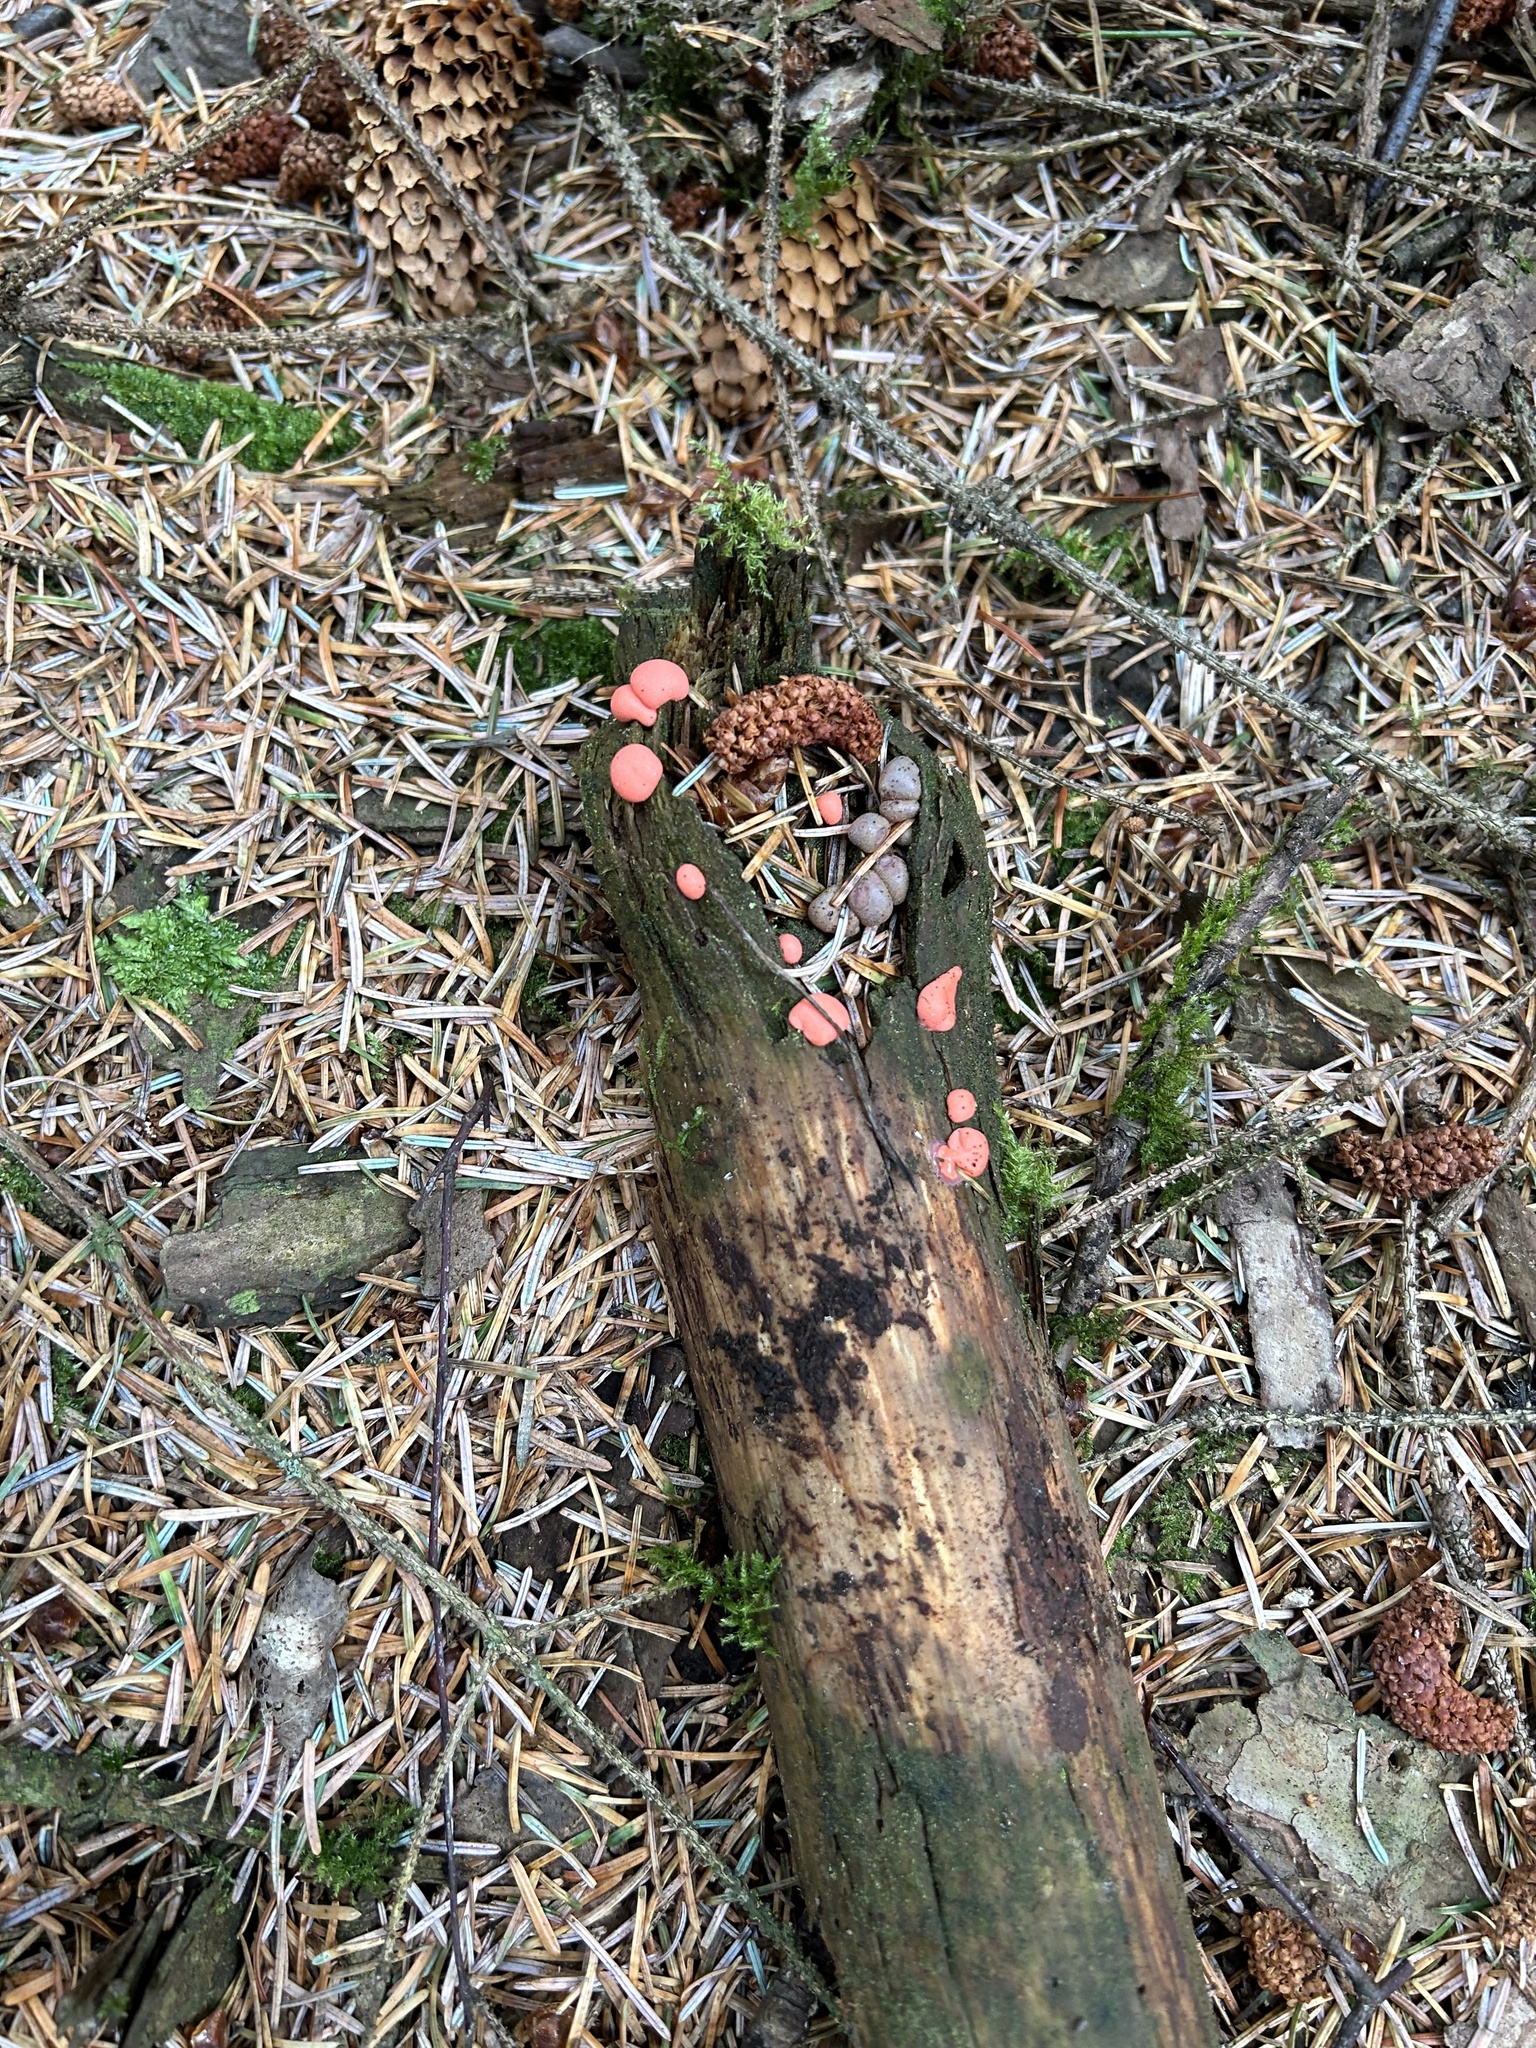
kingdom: Protozoa
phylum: Mycetozoa
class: Myxomycetes
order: Cribrariales
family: Tubiferaceae
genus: Lycogala
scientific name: Lycogala epidendrum
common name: Wolf's milk
